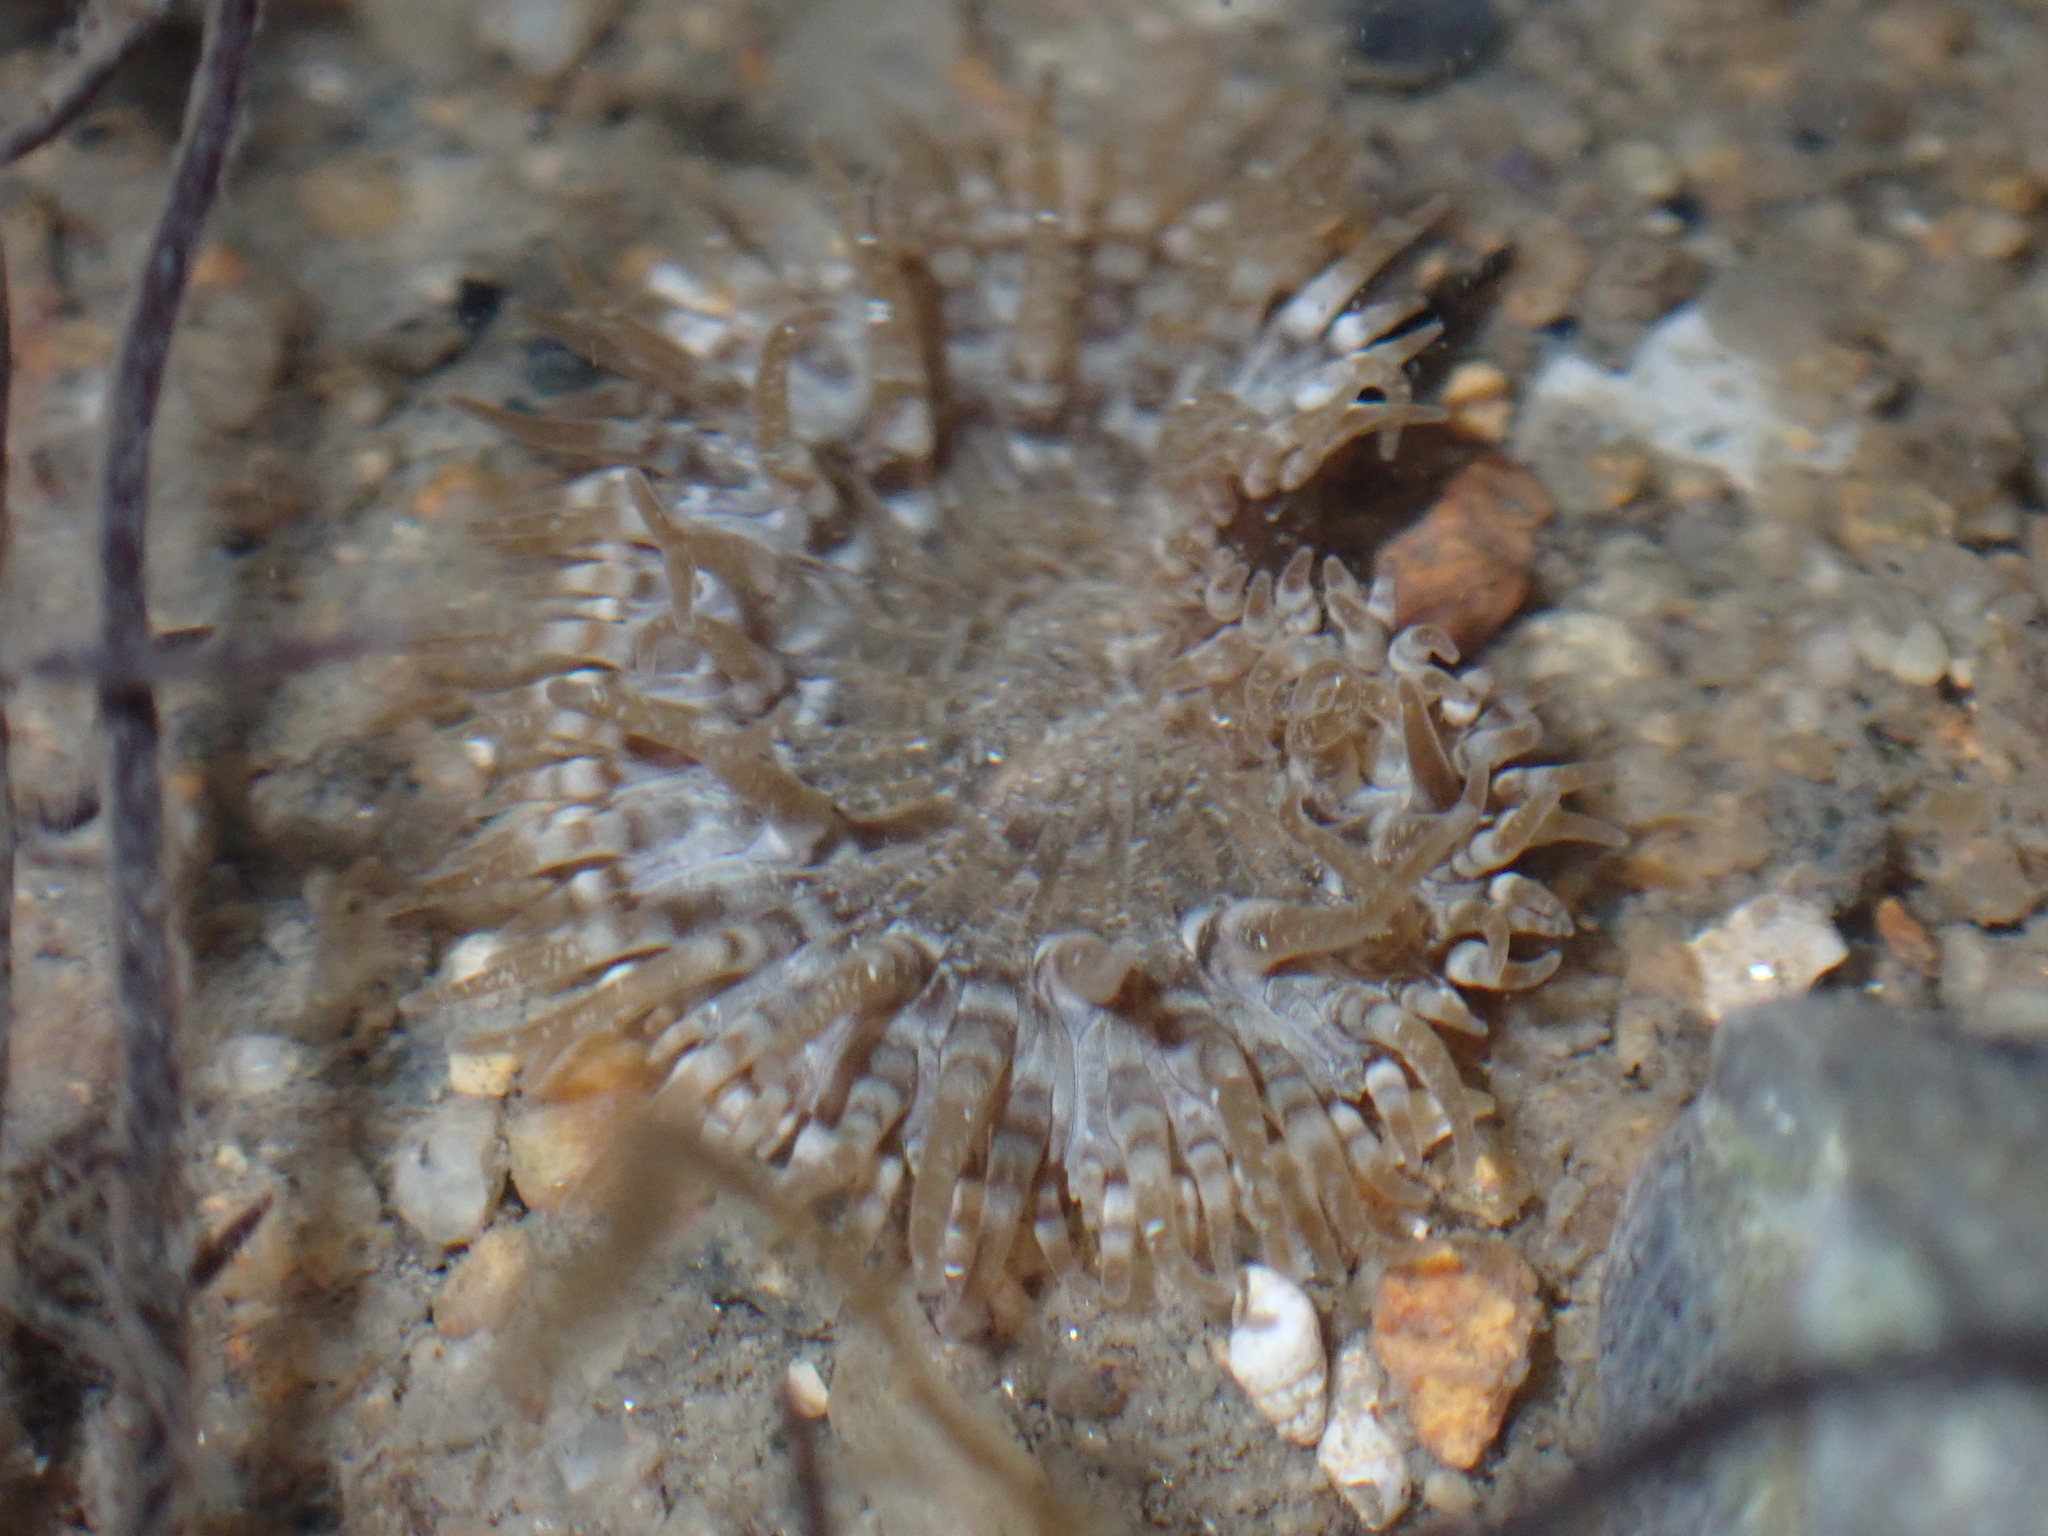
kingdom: Animalia
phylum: Cnidaria
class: Anthozoa
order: Actiniaria
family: Sagartiidae
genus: Cylista
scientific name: Cylista troglodytes
